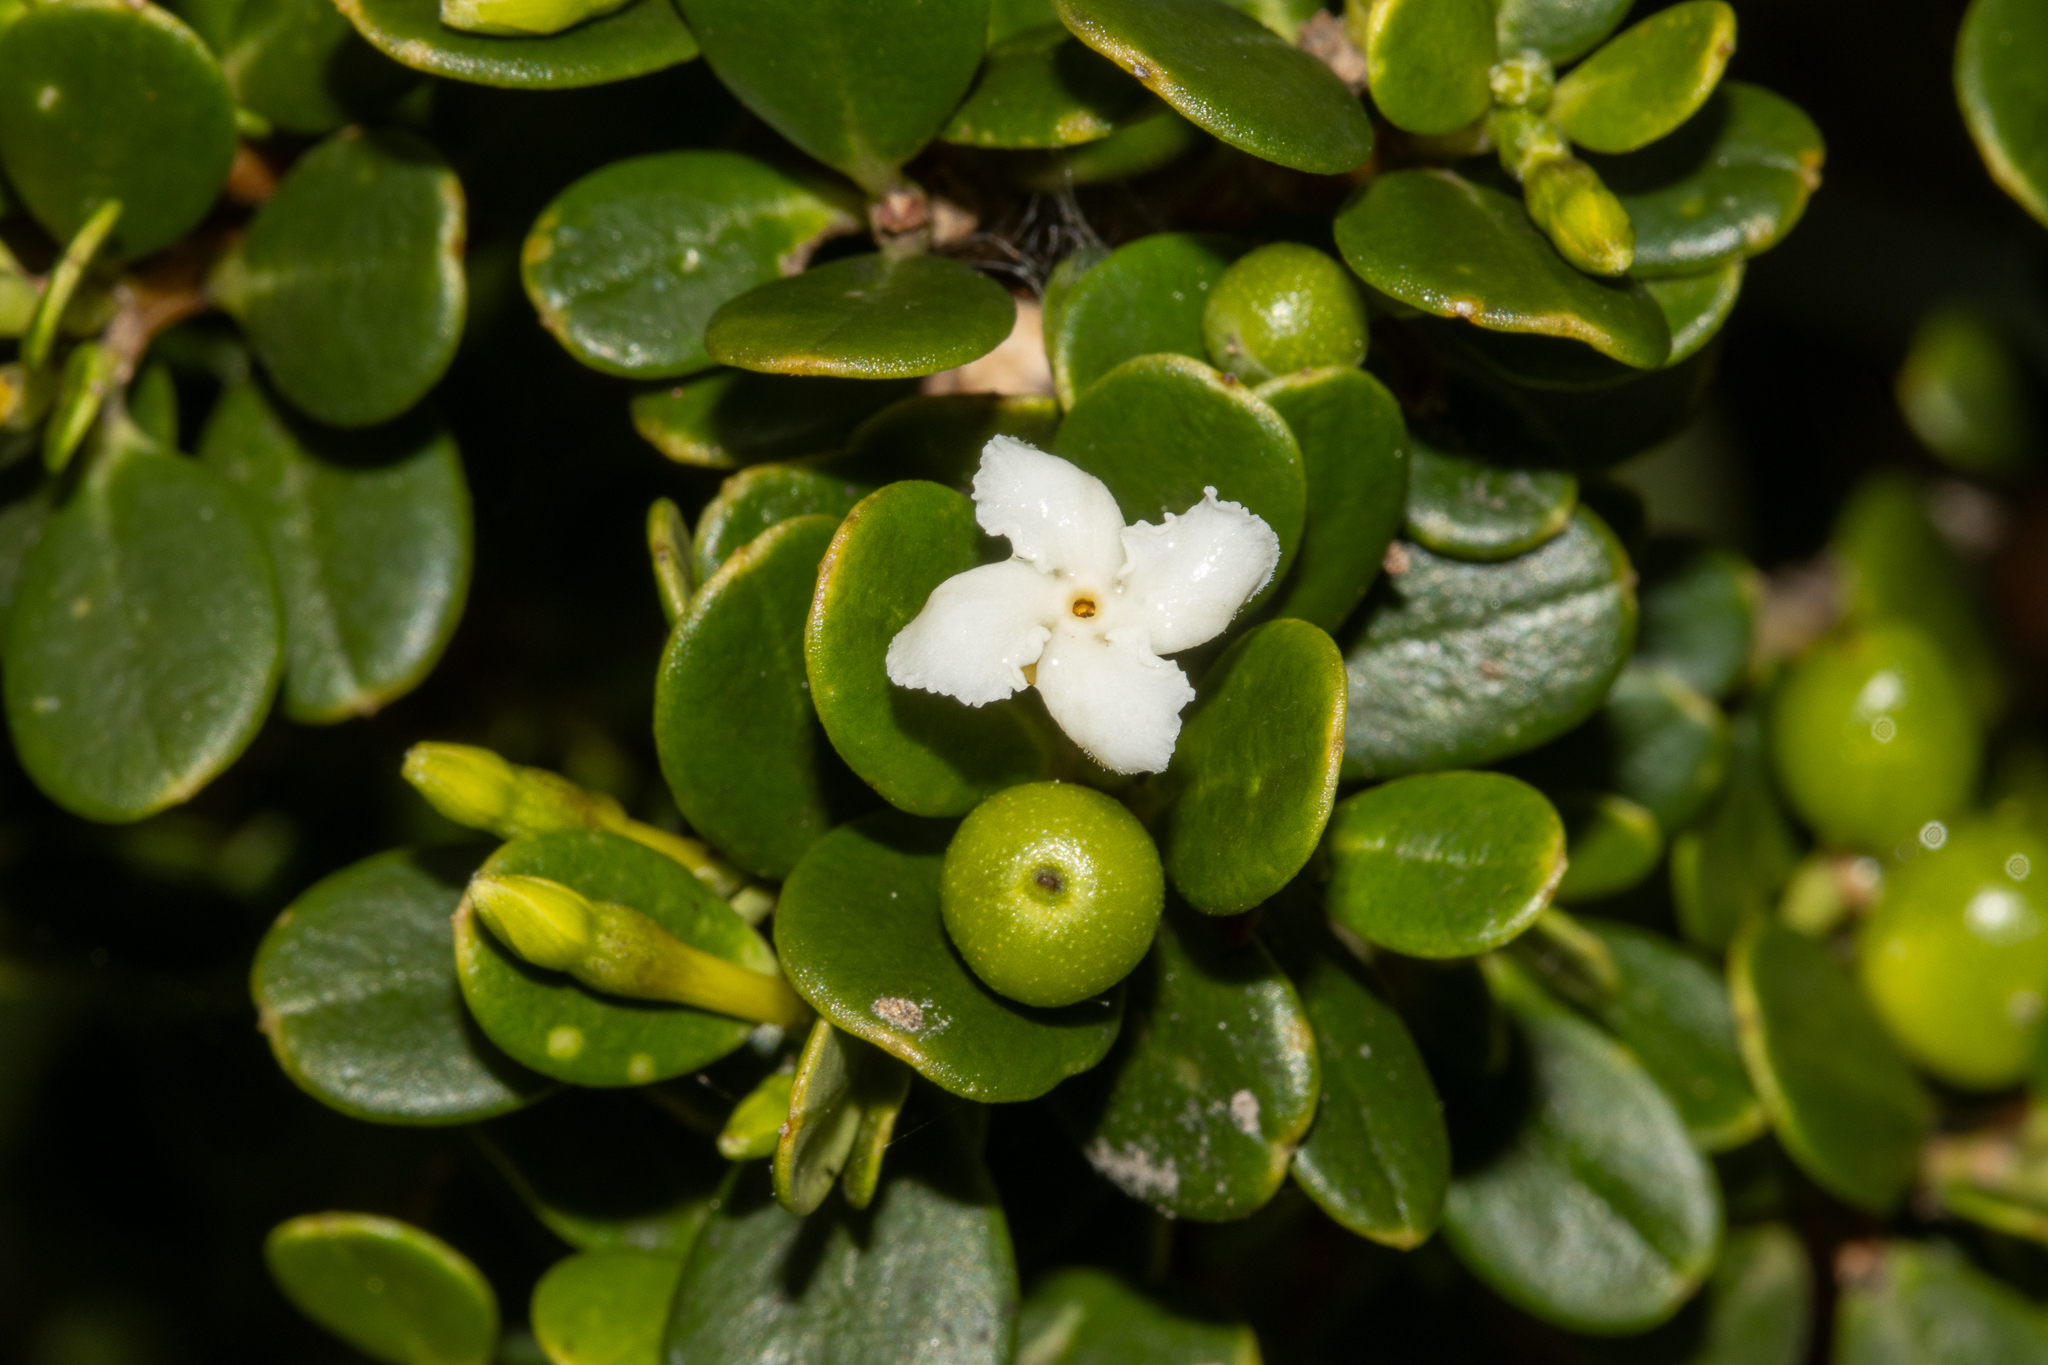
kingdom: Plantae
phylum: Tracheophyta
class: Magnoliopsida
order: Gentianales
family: Apocynaceae
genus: Alyxia
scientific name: Alyxia buxifolia
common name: Dysentery-bush
